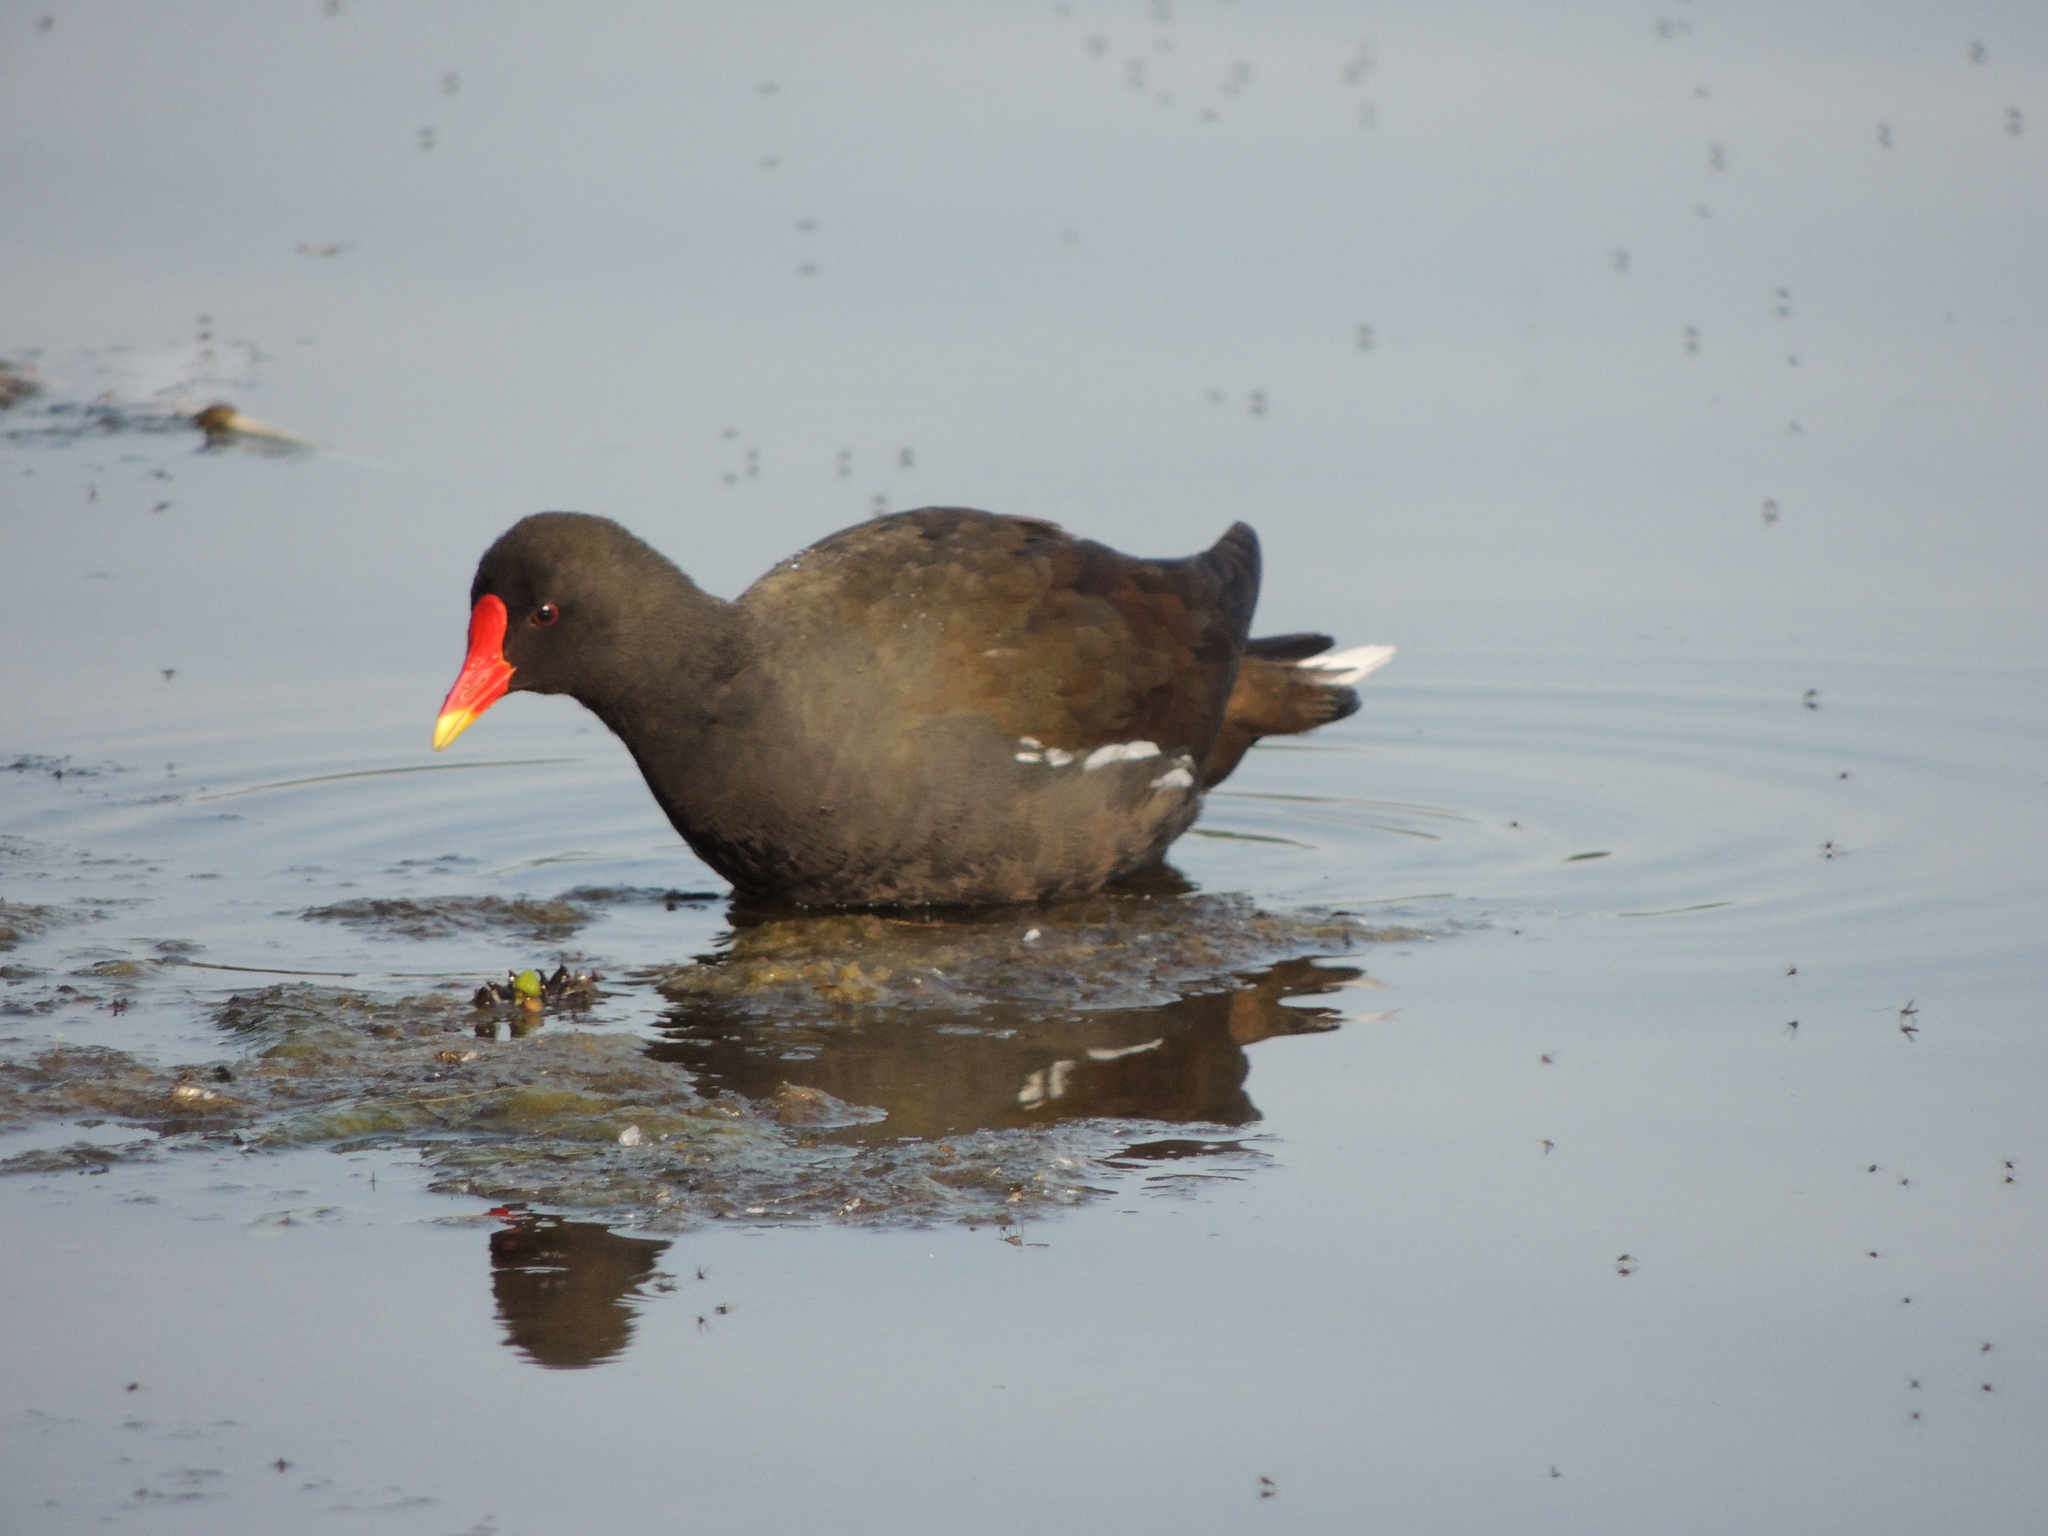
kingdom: Animalia
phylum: Chordata
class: Aves
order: Gruiformes
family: Rallidae
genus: Gallinula
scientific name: Gallinula chloropus
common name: Common moorhen
